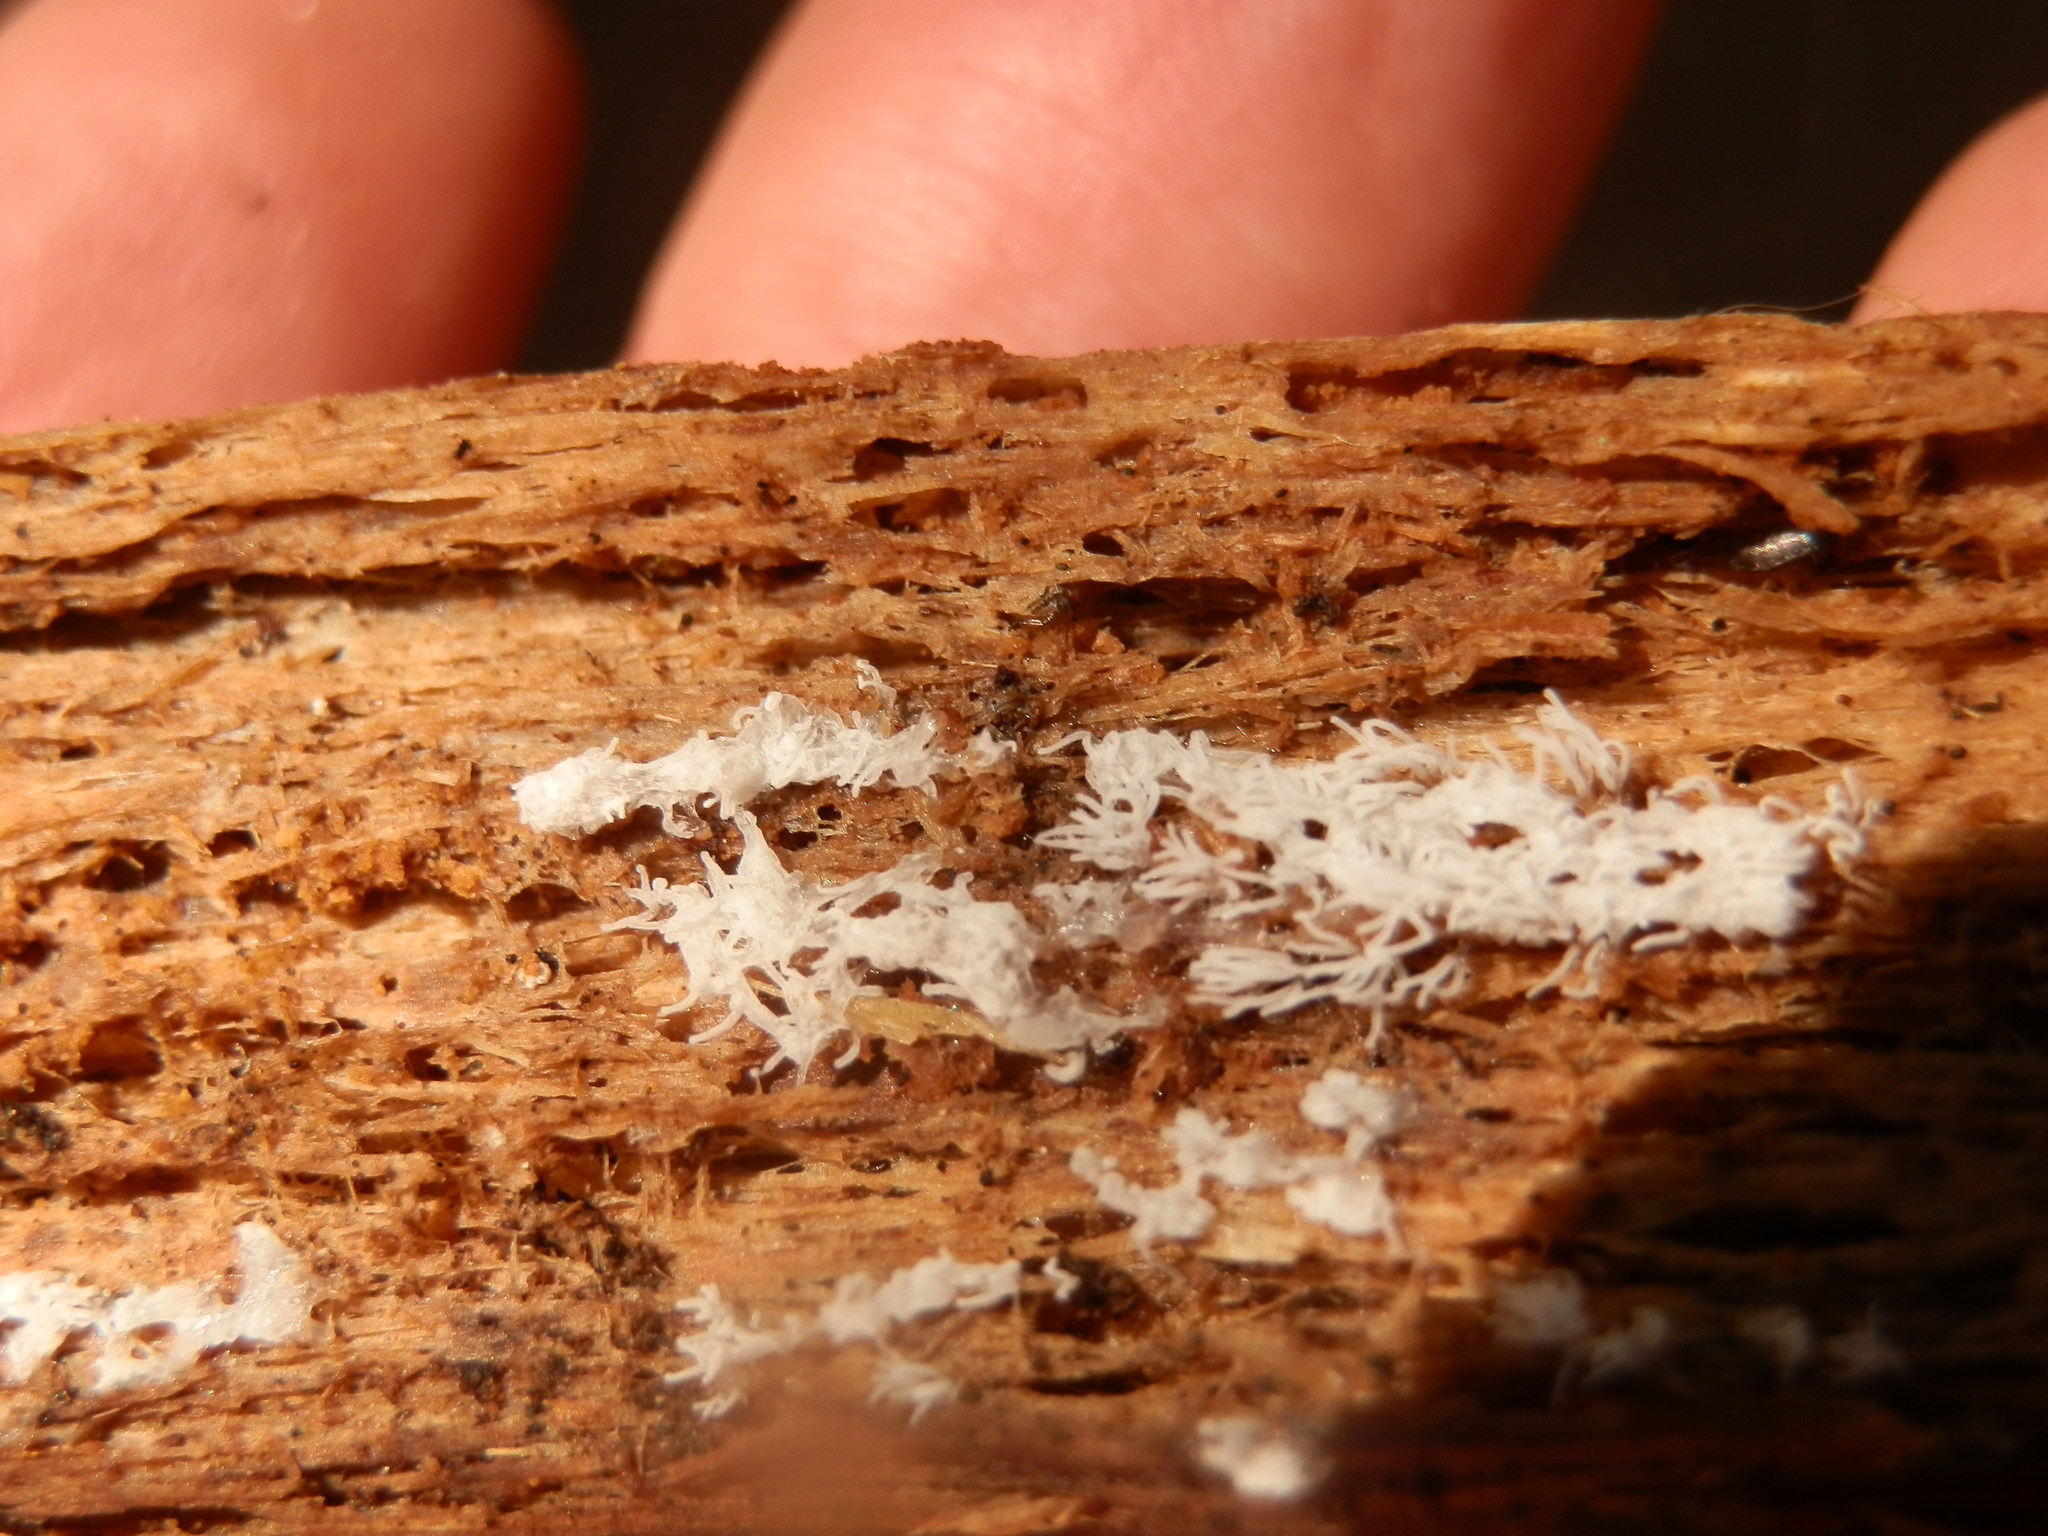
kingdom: Protozoa
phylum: Mycetozoa
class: Protosteliomycetes
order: Ceratiomyxales
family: Ceratiomyxaceae
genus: Ceratiomyxa
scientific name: Ceratiomyxa fruticulosa
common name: Honeycomb coral slime mold
